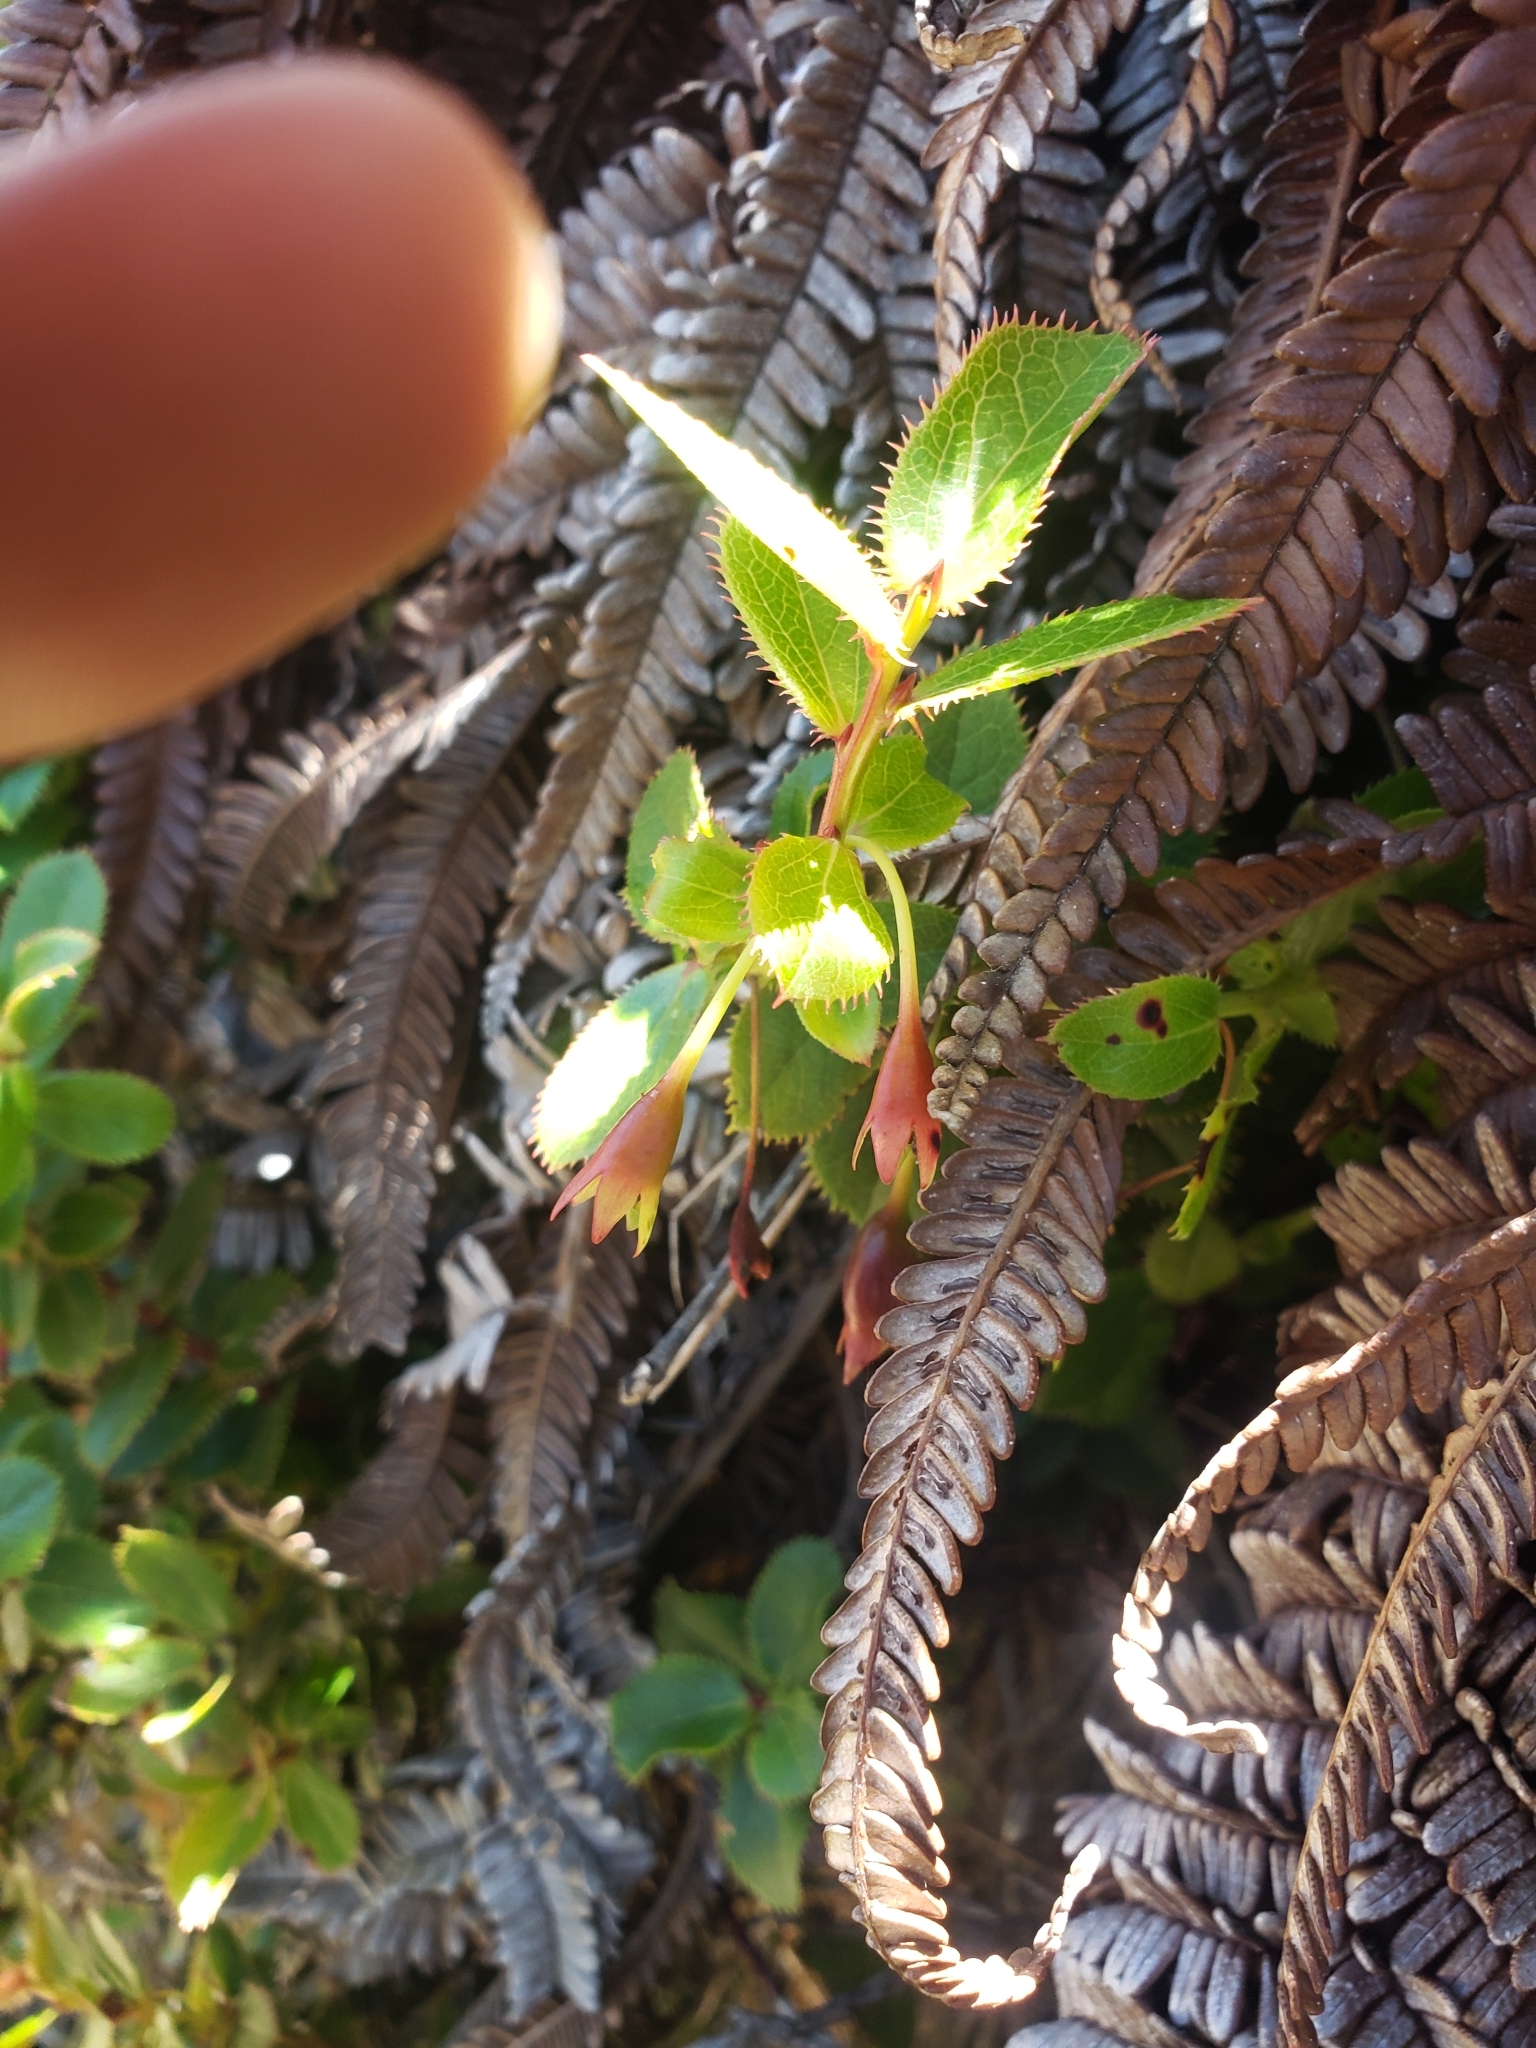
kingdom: Plantae
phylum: Tracheophyta
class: Magnoliopsida
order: Ericales
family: Ericaceae
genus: Vaccinium
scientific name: Vaccinium dentatum
